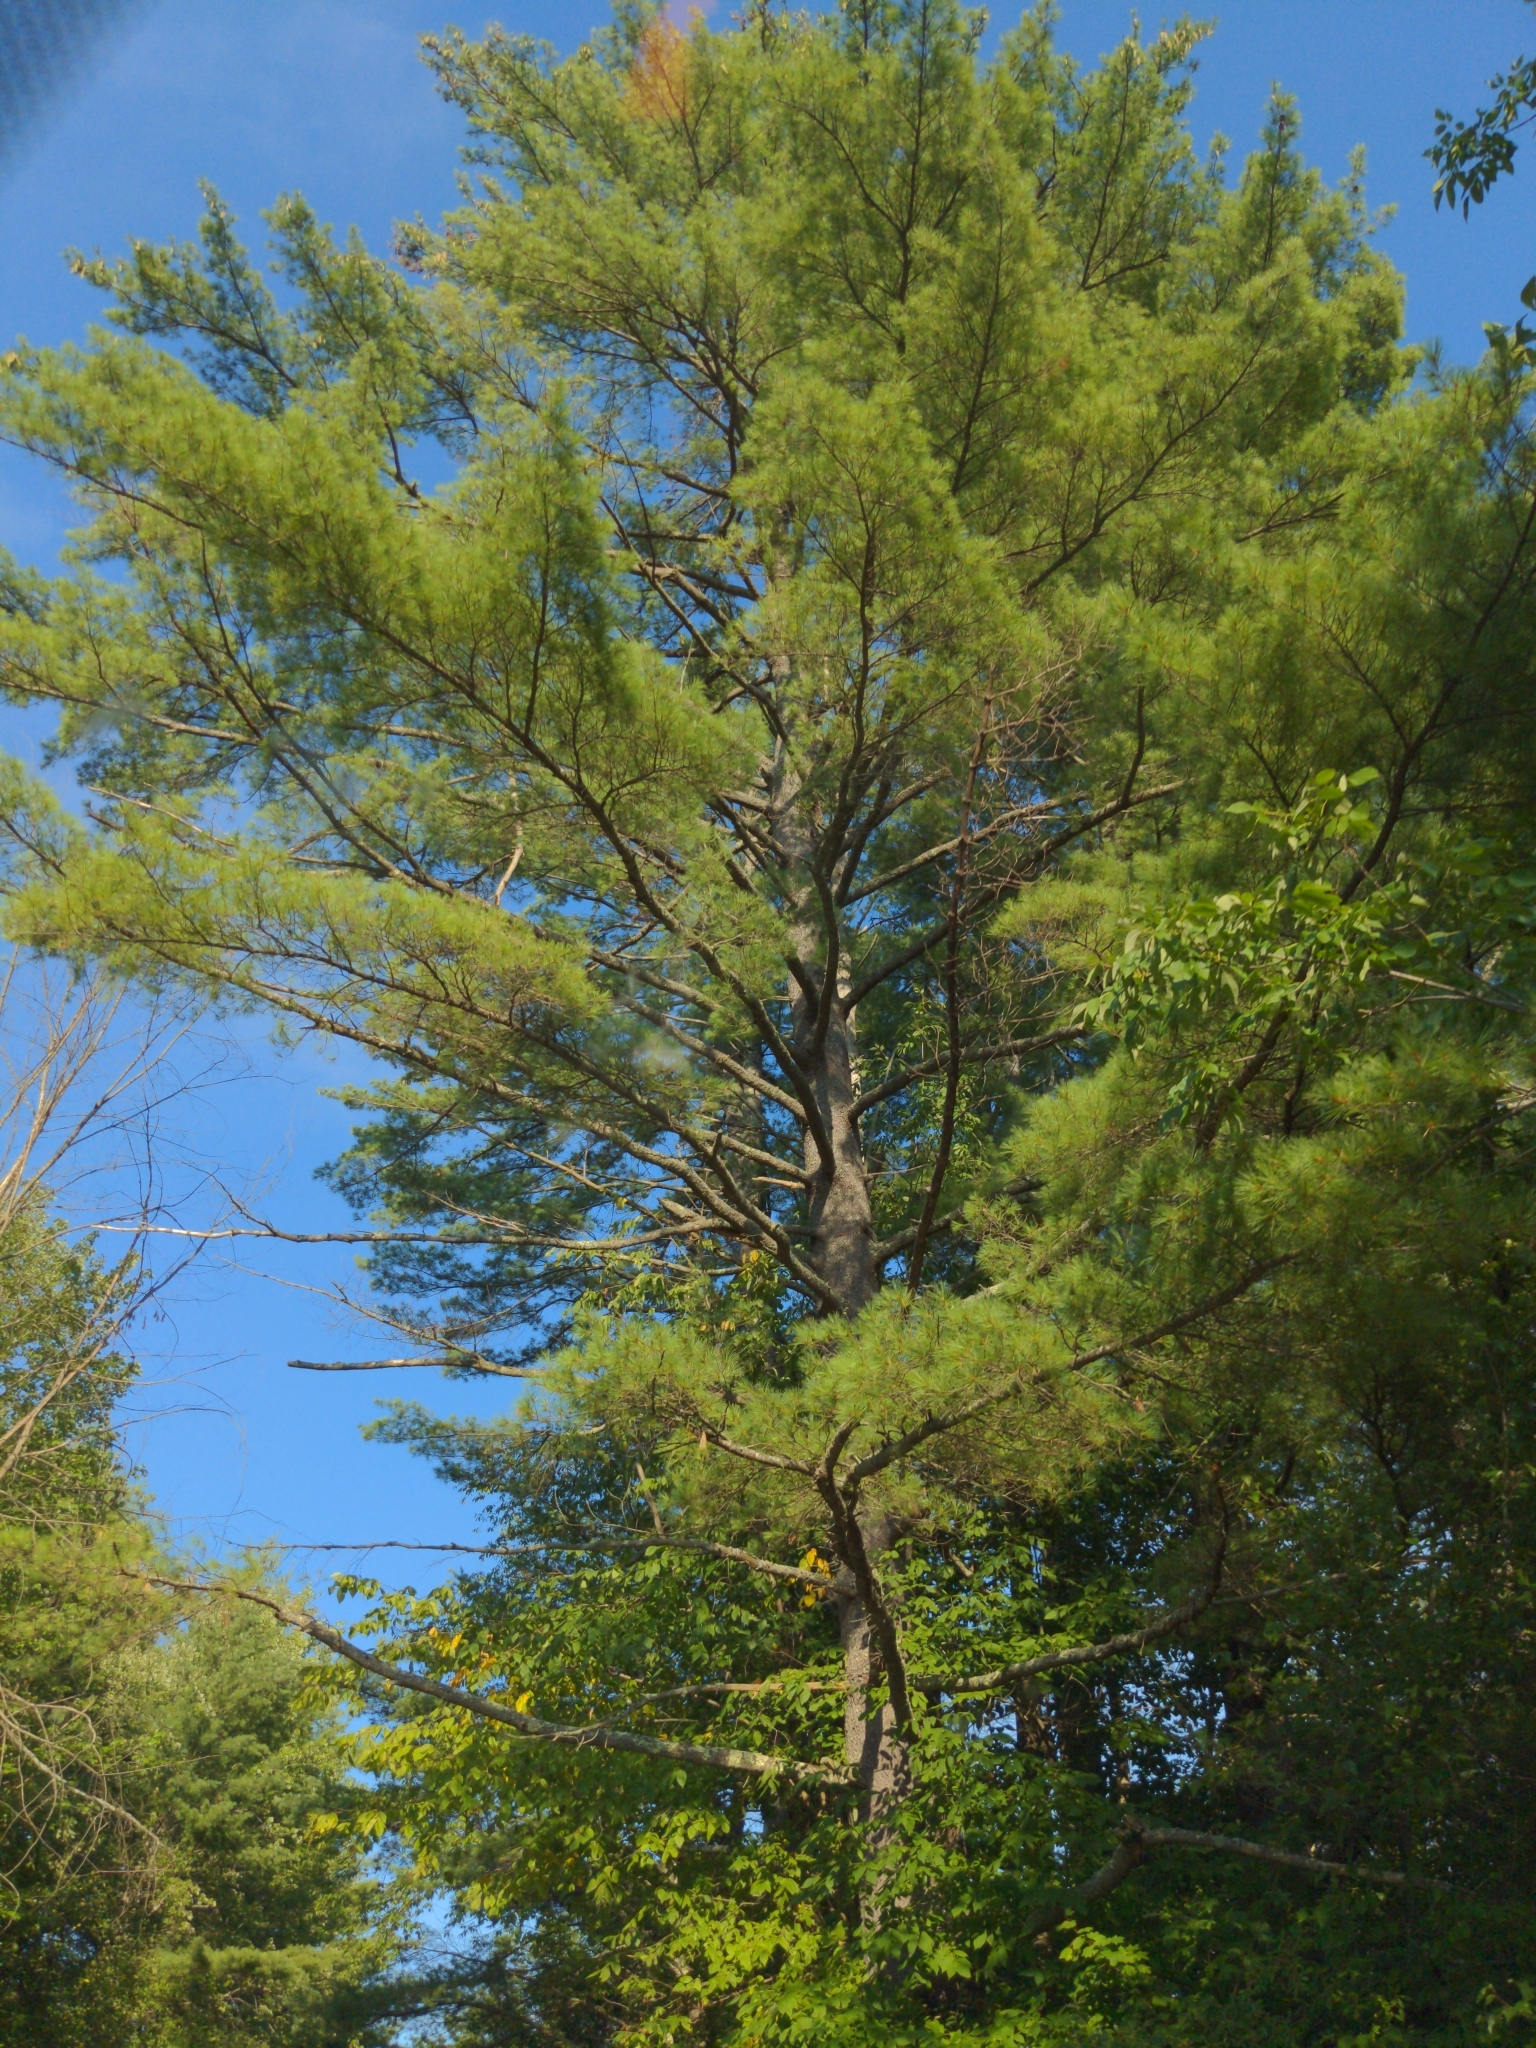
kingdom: Plantae
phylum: Tracheophyta
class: Pinopsida
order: Pinales
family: Pinaceae
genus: Pinus
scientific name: Pinus strobus
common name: Weymouth pine
